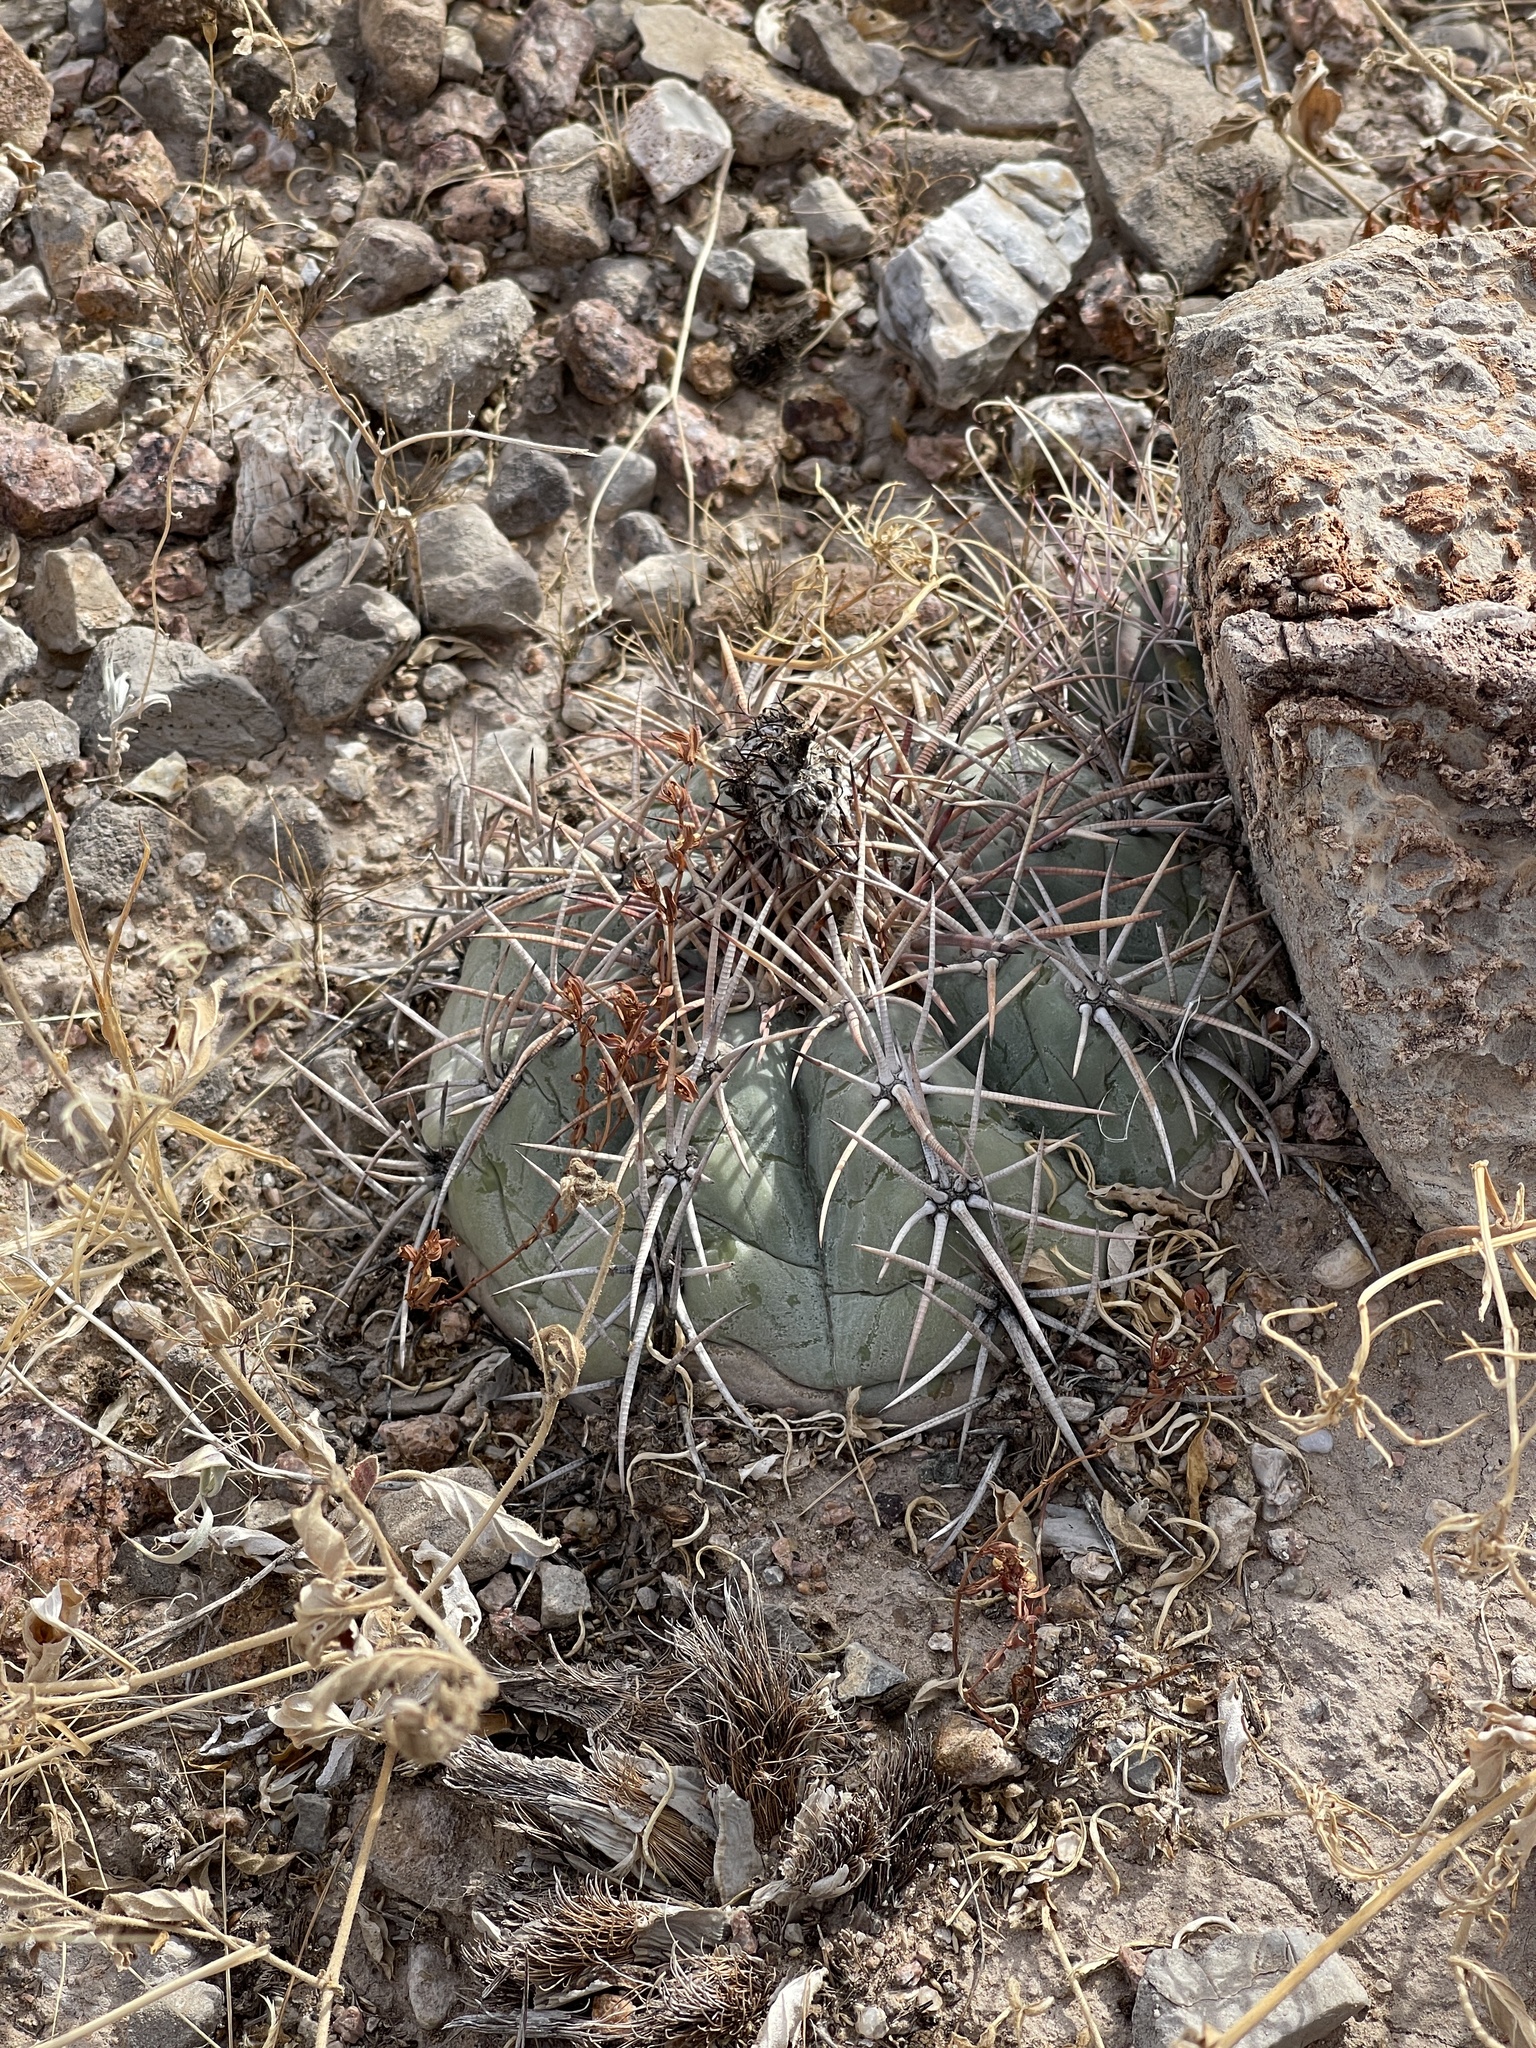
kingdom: Plantae
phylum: Tracheophyta
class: Magnoliopsida
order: Caryophyllales
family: Cactaceae
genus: Echinocactus
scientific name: Echinocactus horizonthalonius
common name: Devilshead
